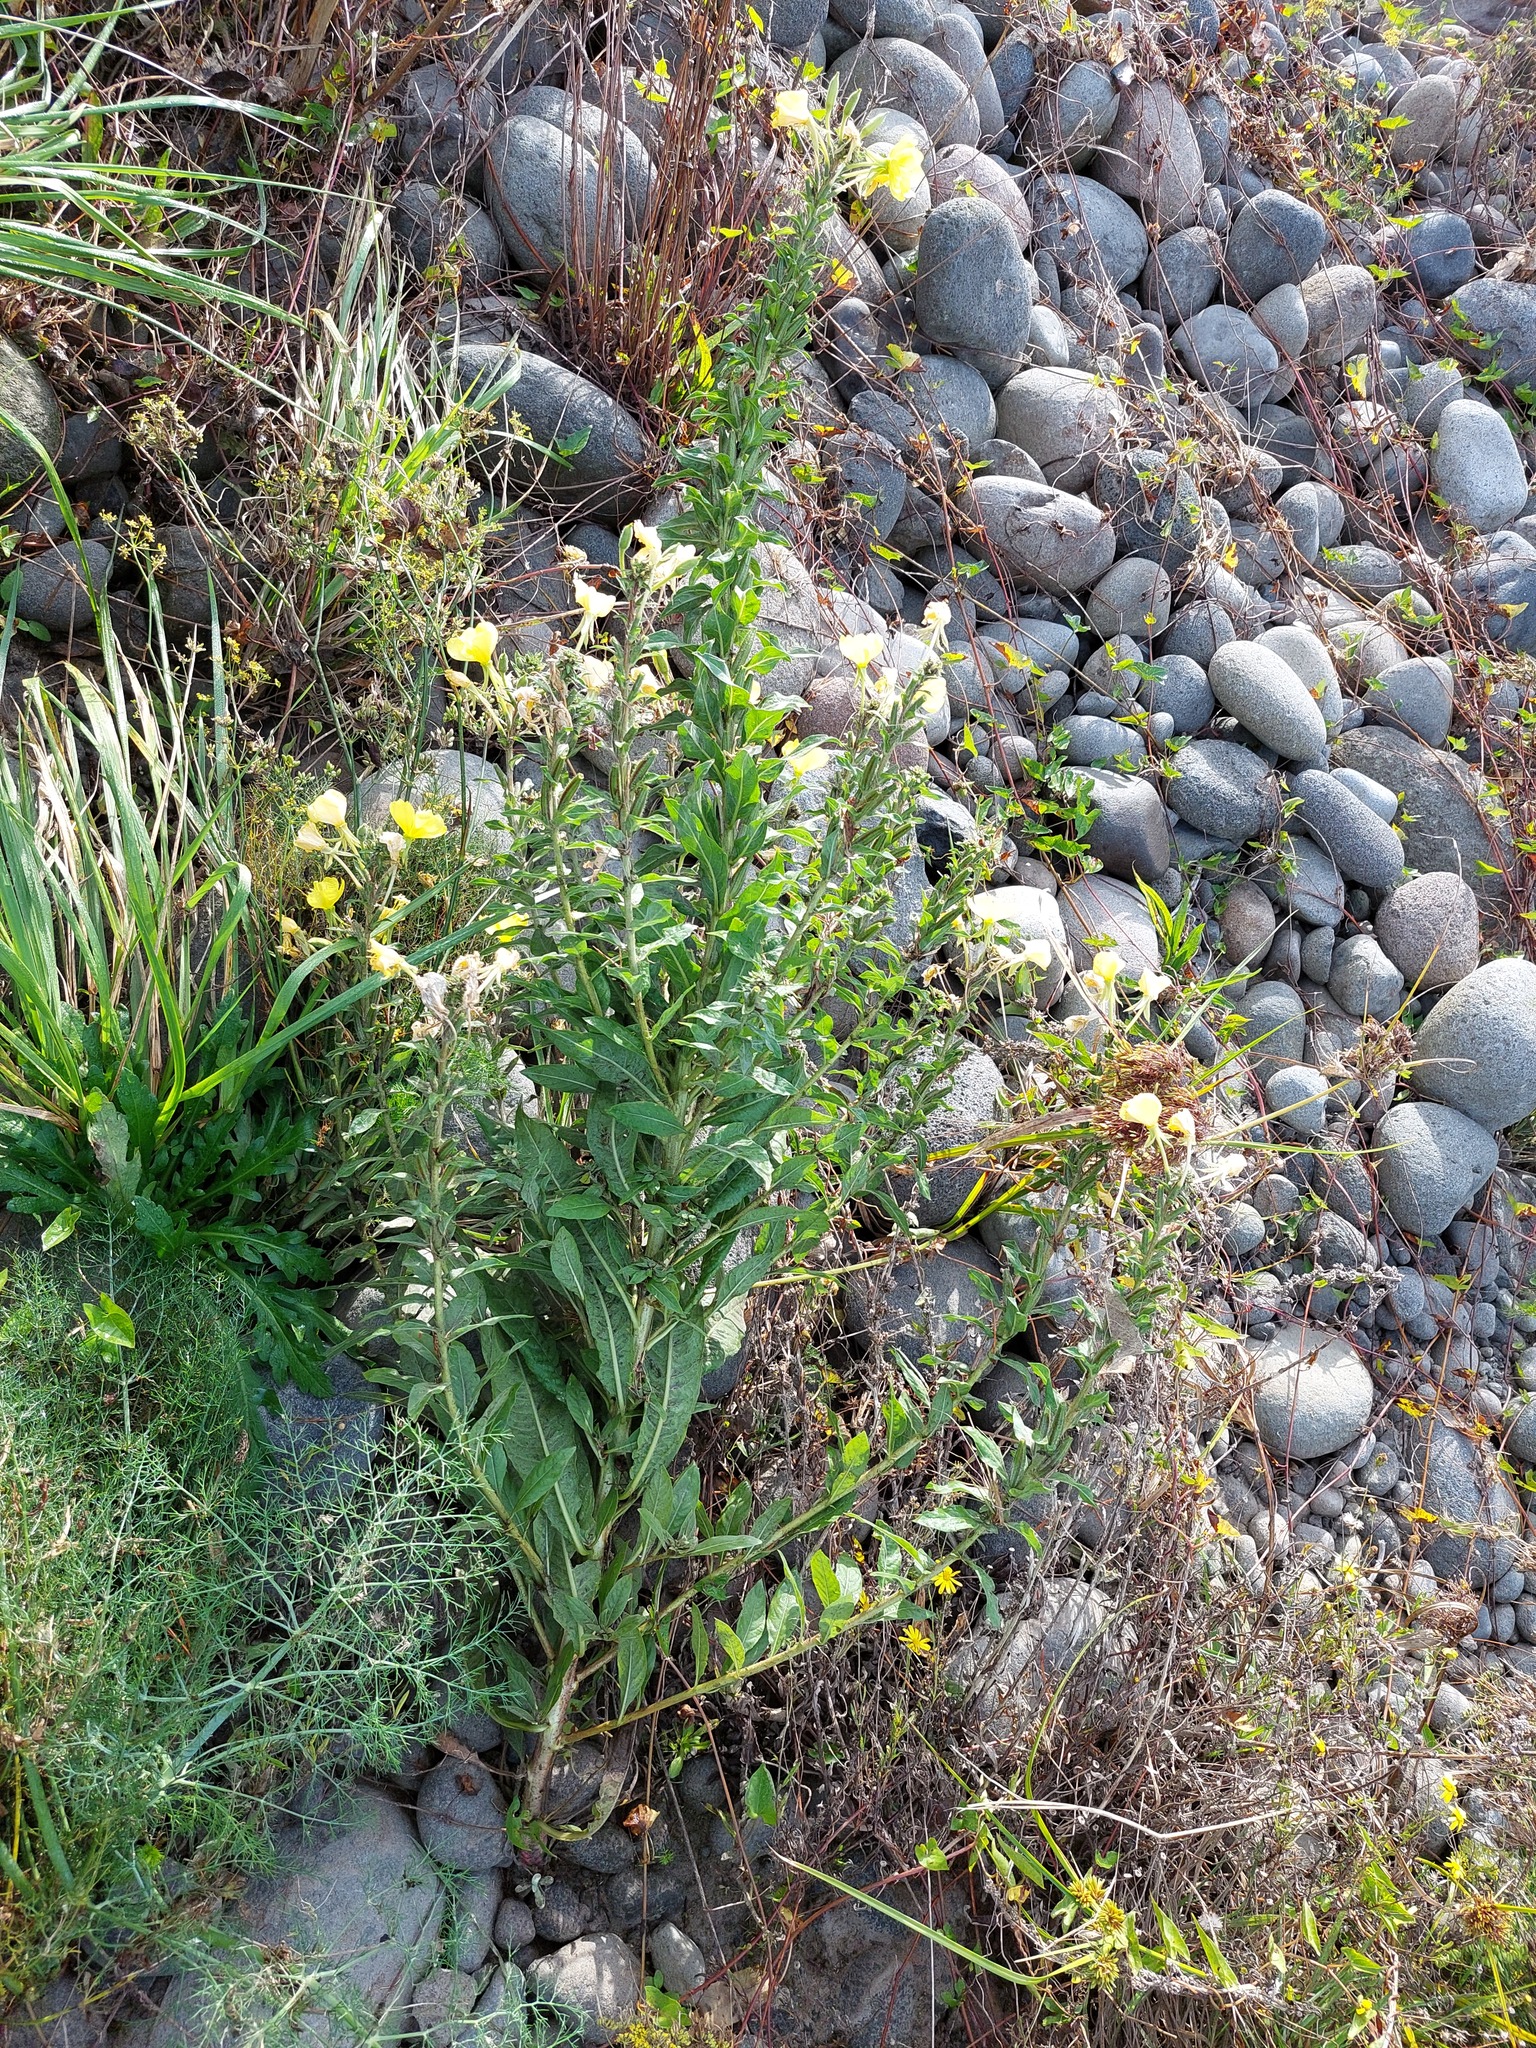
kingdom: Plantae
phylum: Tracheophyta
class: Magnoliopsida
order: Myrtales
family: Onagraceae
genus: Oenothera
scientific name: Oenothera stricta
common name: Fragrant evening-primrose
